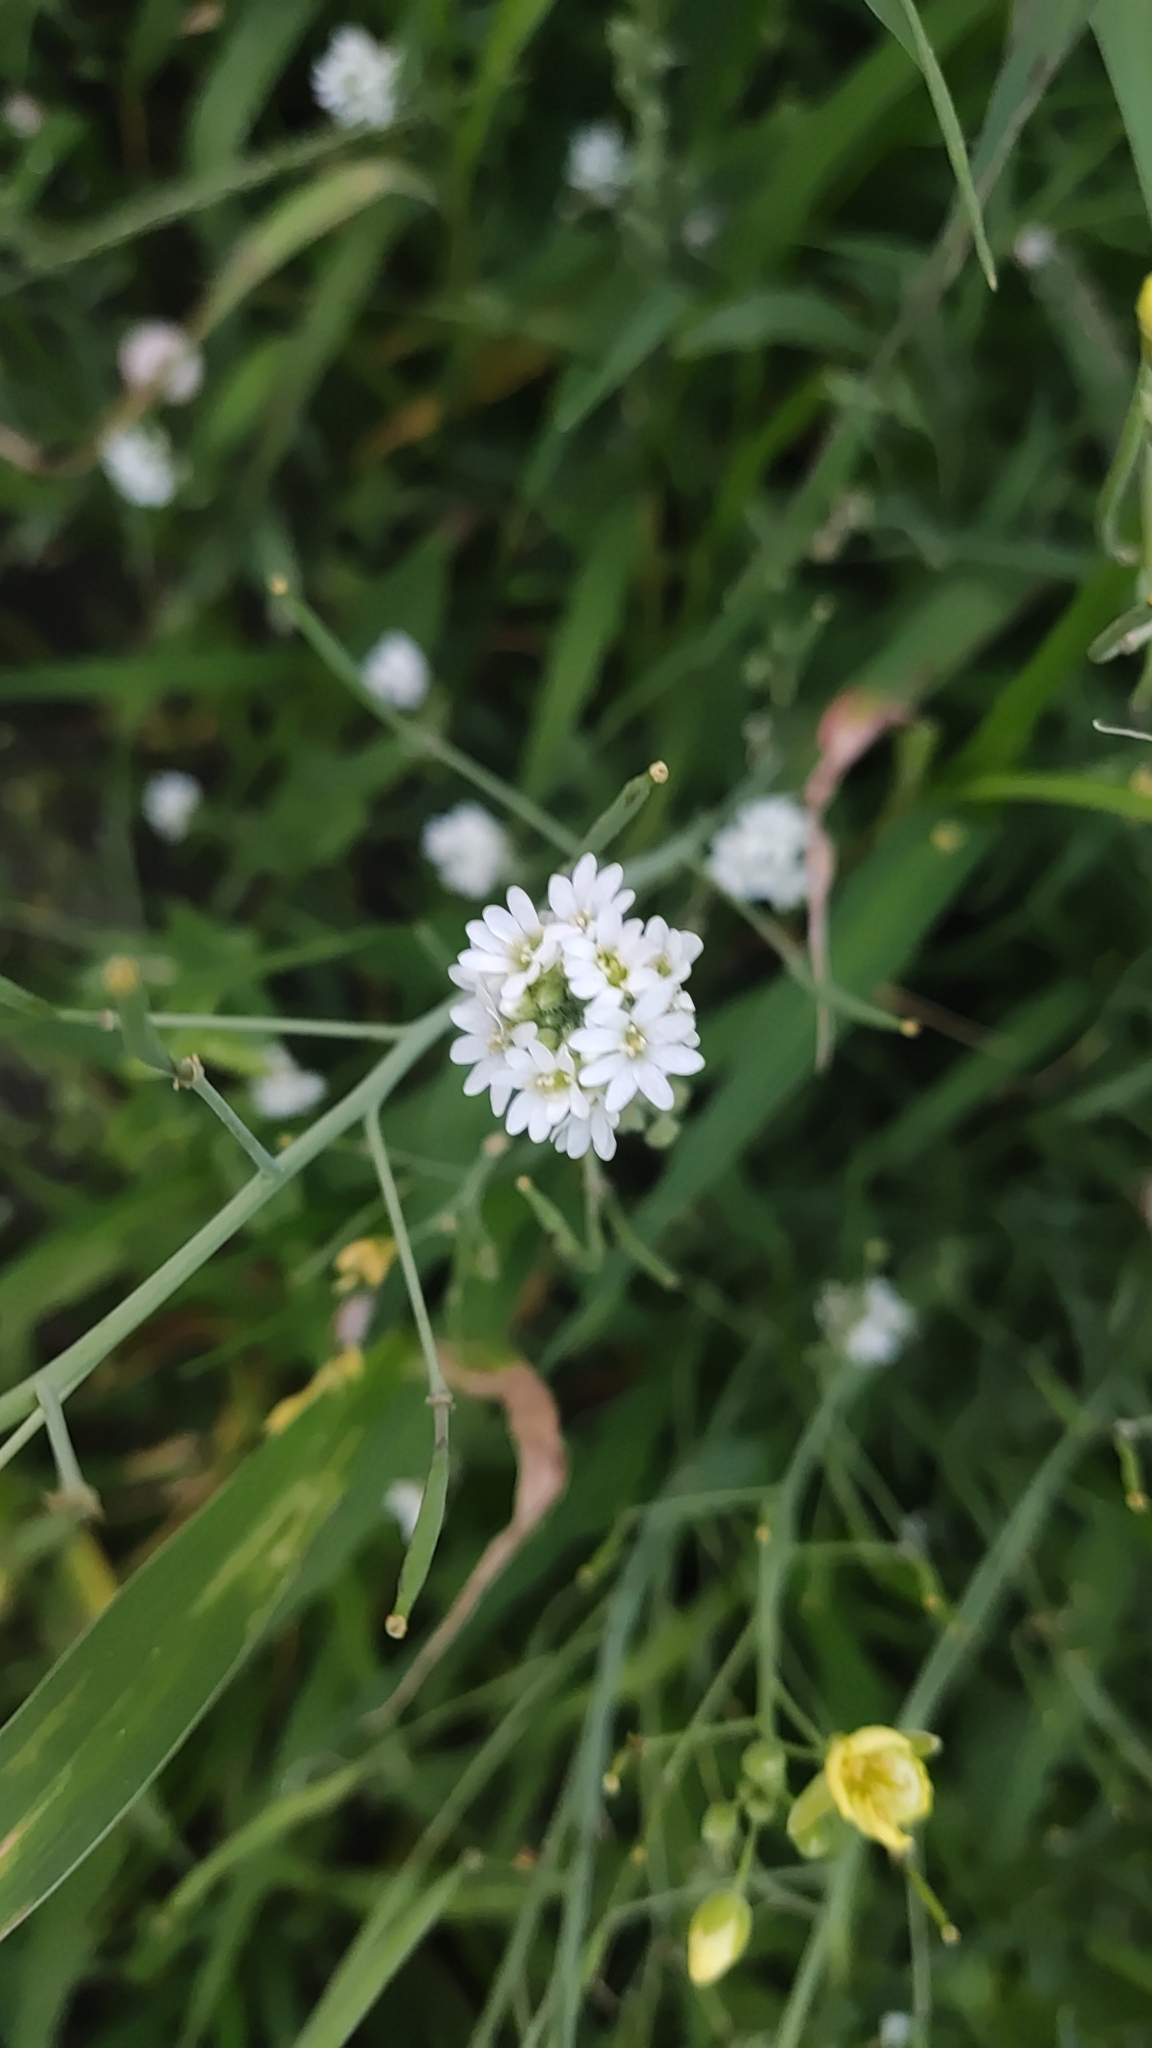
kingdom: Plantae
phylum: Tracheophyta
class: Magnoliopsida
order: Brassicales
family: Brassicaceae
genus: Berteroa
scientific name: Berteroa incana
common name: Hoary alison
